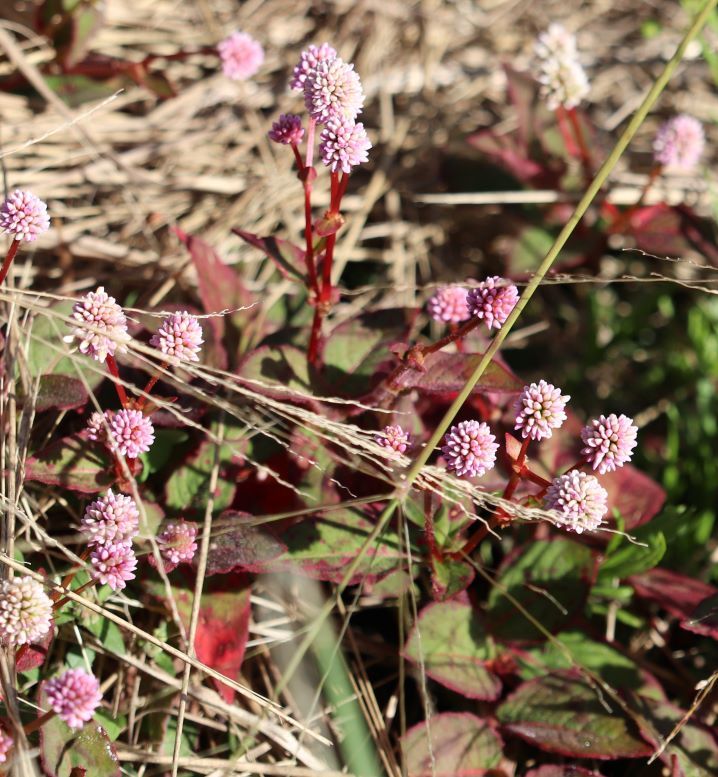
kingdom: Plantae
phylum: Tracheophyta
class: Magnoliopsida
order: Caryophyllales
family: Polygonaceae
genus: Persicaria
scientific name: Persicaria capitata
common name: Pinkhead smartweed
